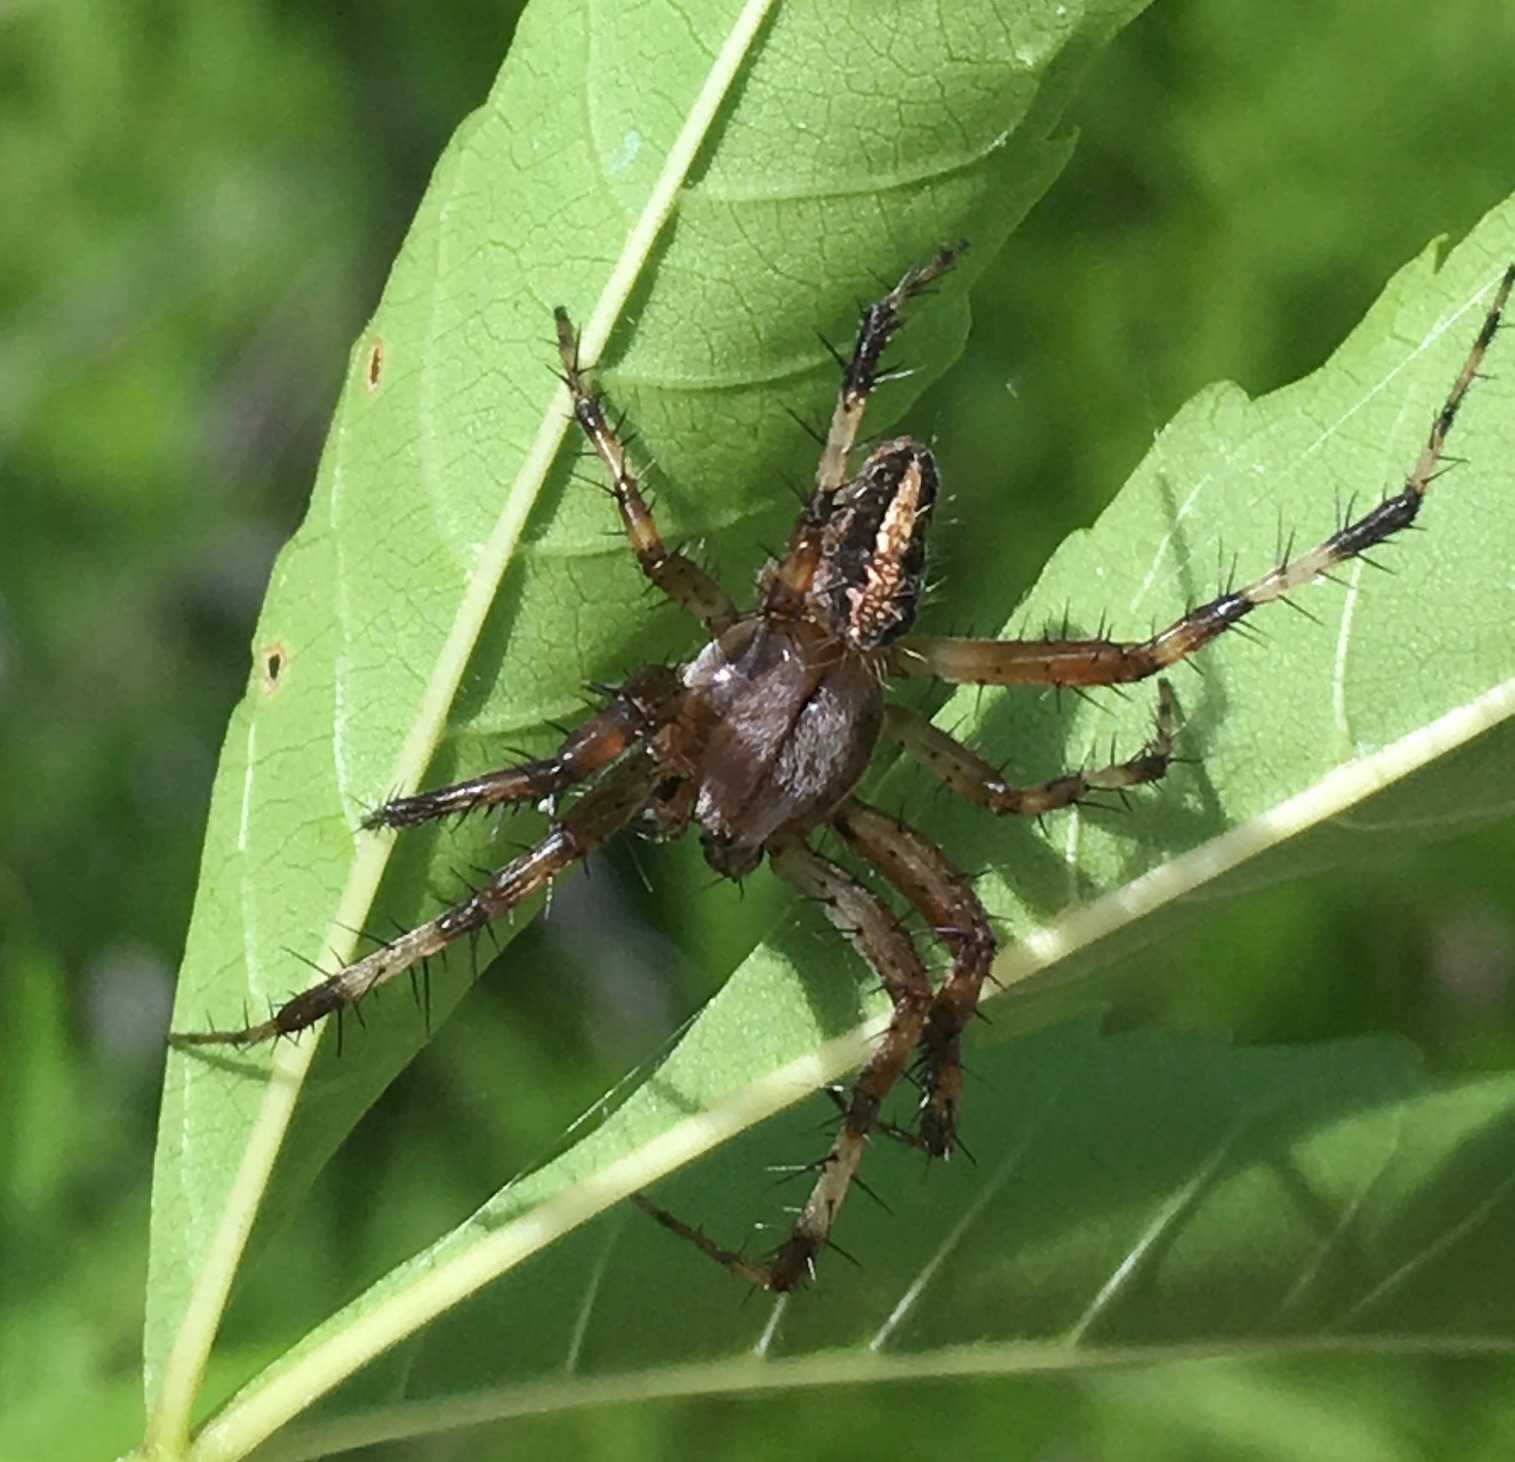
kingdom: Animalia
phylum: Arthropoda
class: Arachnida
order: Araneae
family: Araneidae
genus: Neoscona
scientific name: Neoscona oaxacensis
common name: Orb weavers
